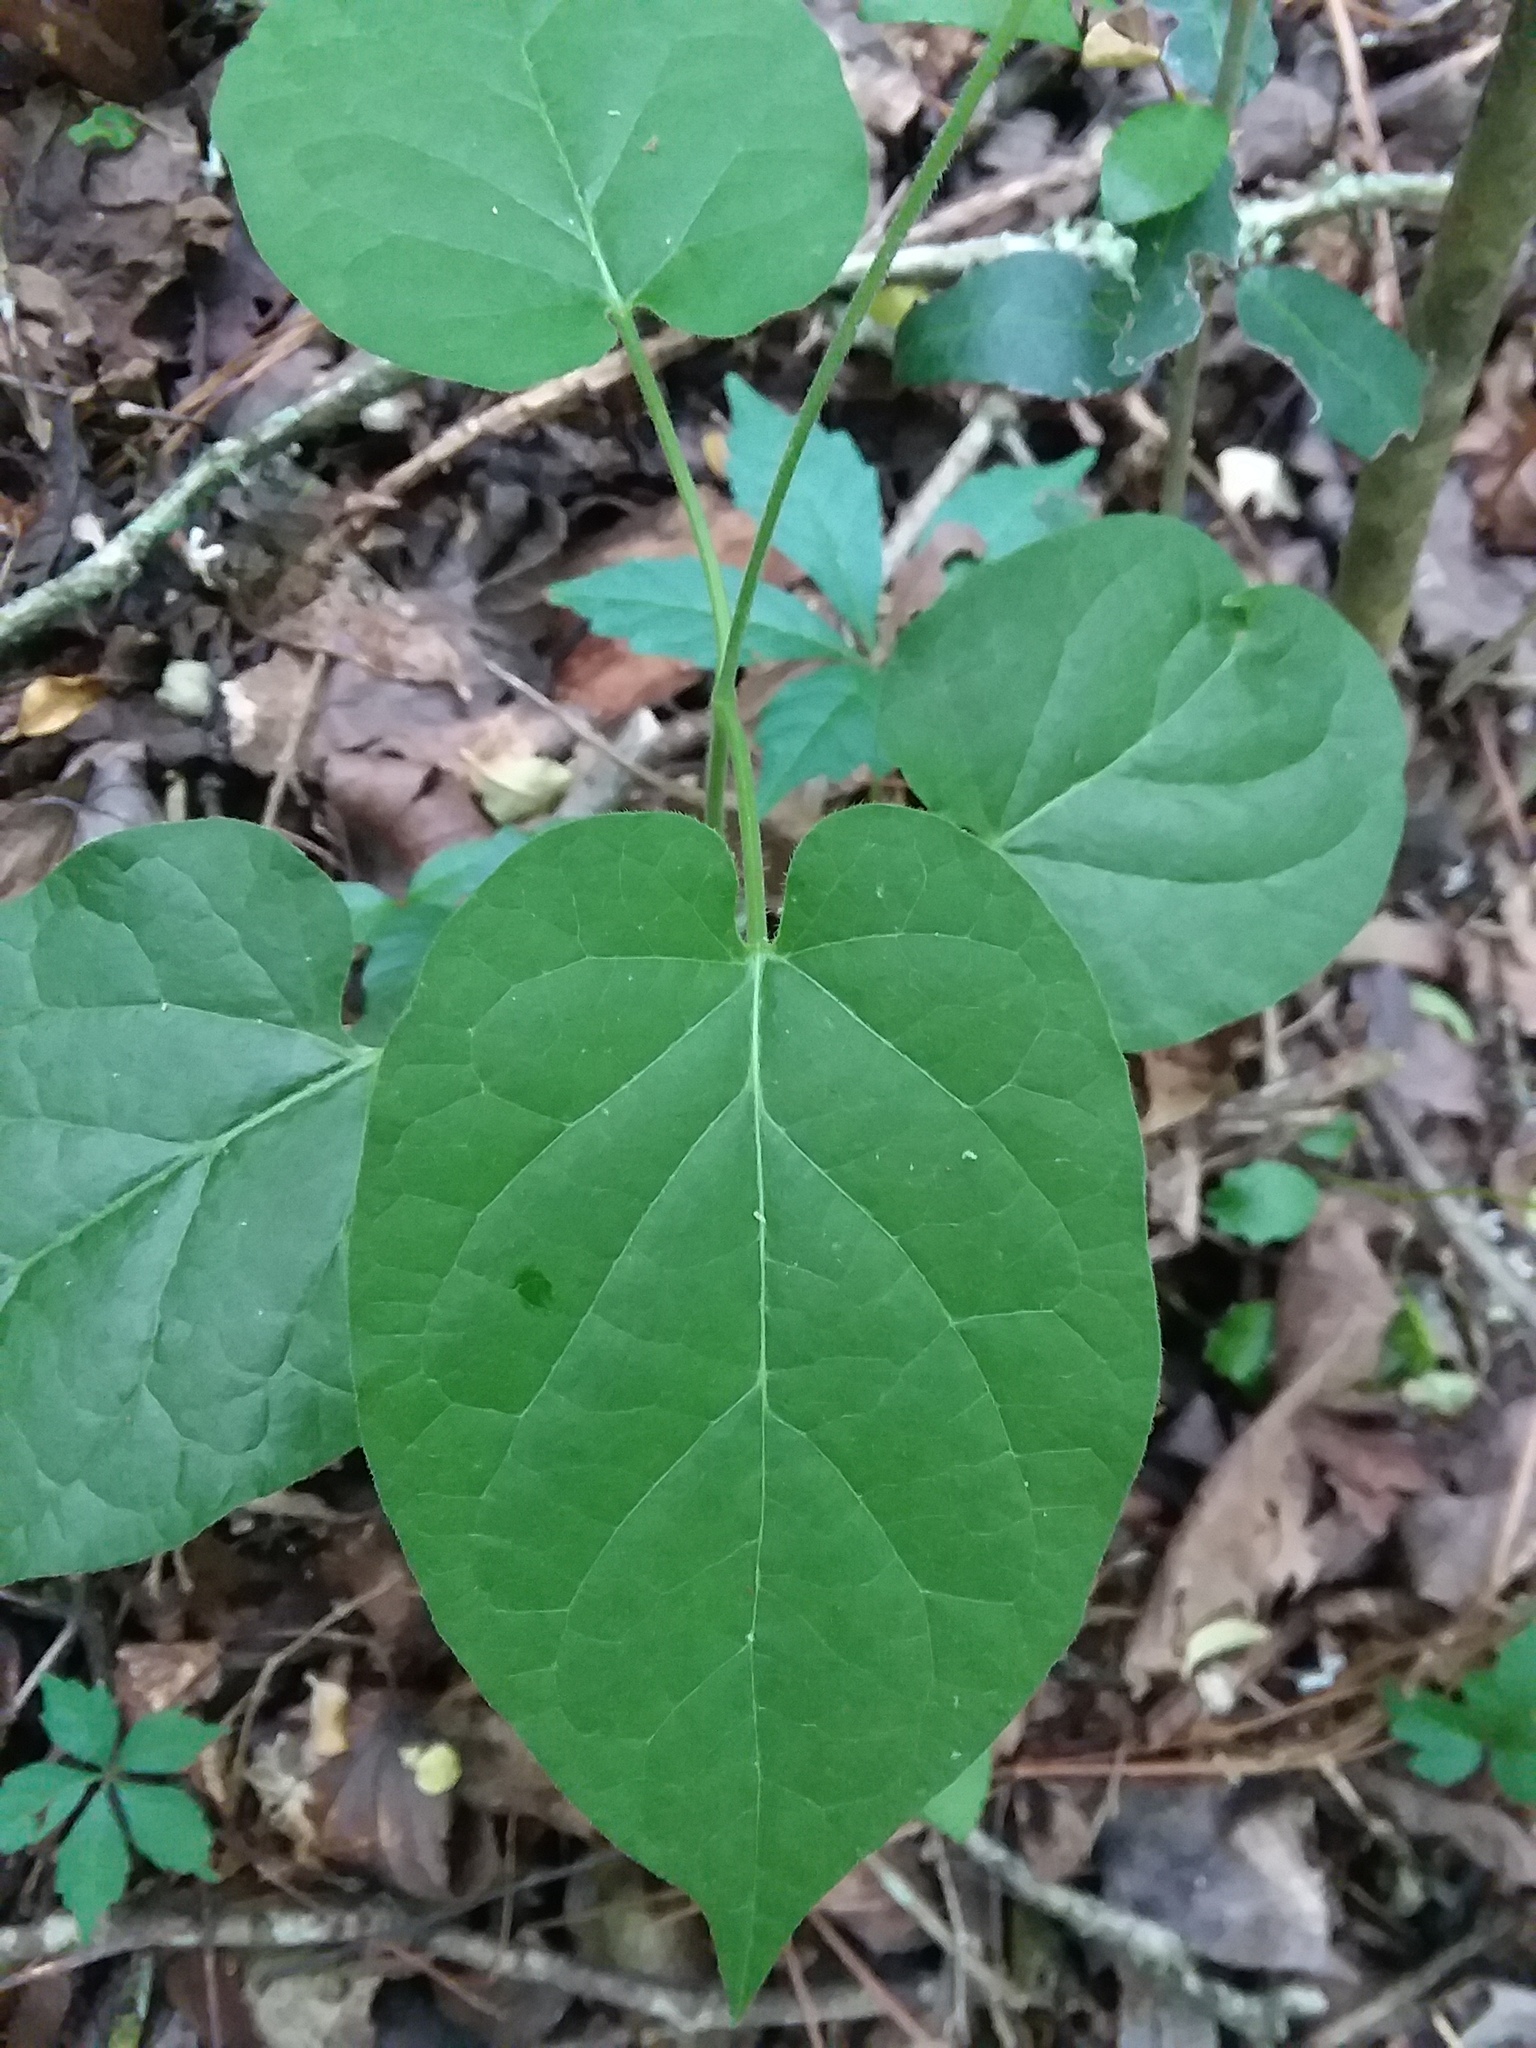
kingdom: Plantae
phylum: Tracheophyta
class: Magnoliopsida
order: Gentianales
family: Apocynaceae
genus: Gonolobus
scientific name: Gonolobus suberosus
